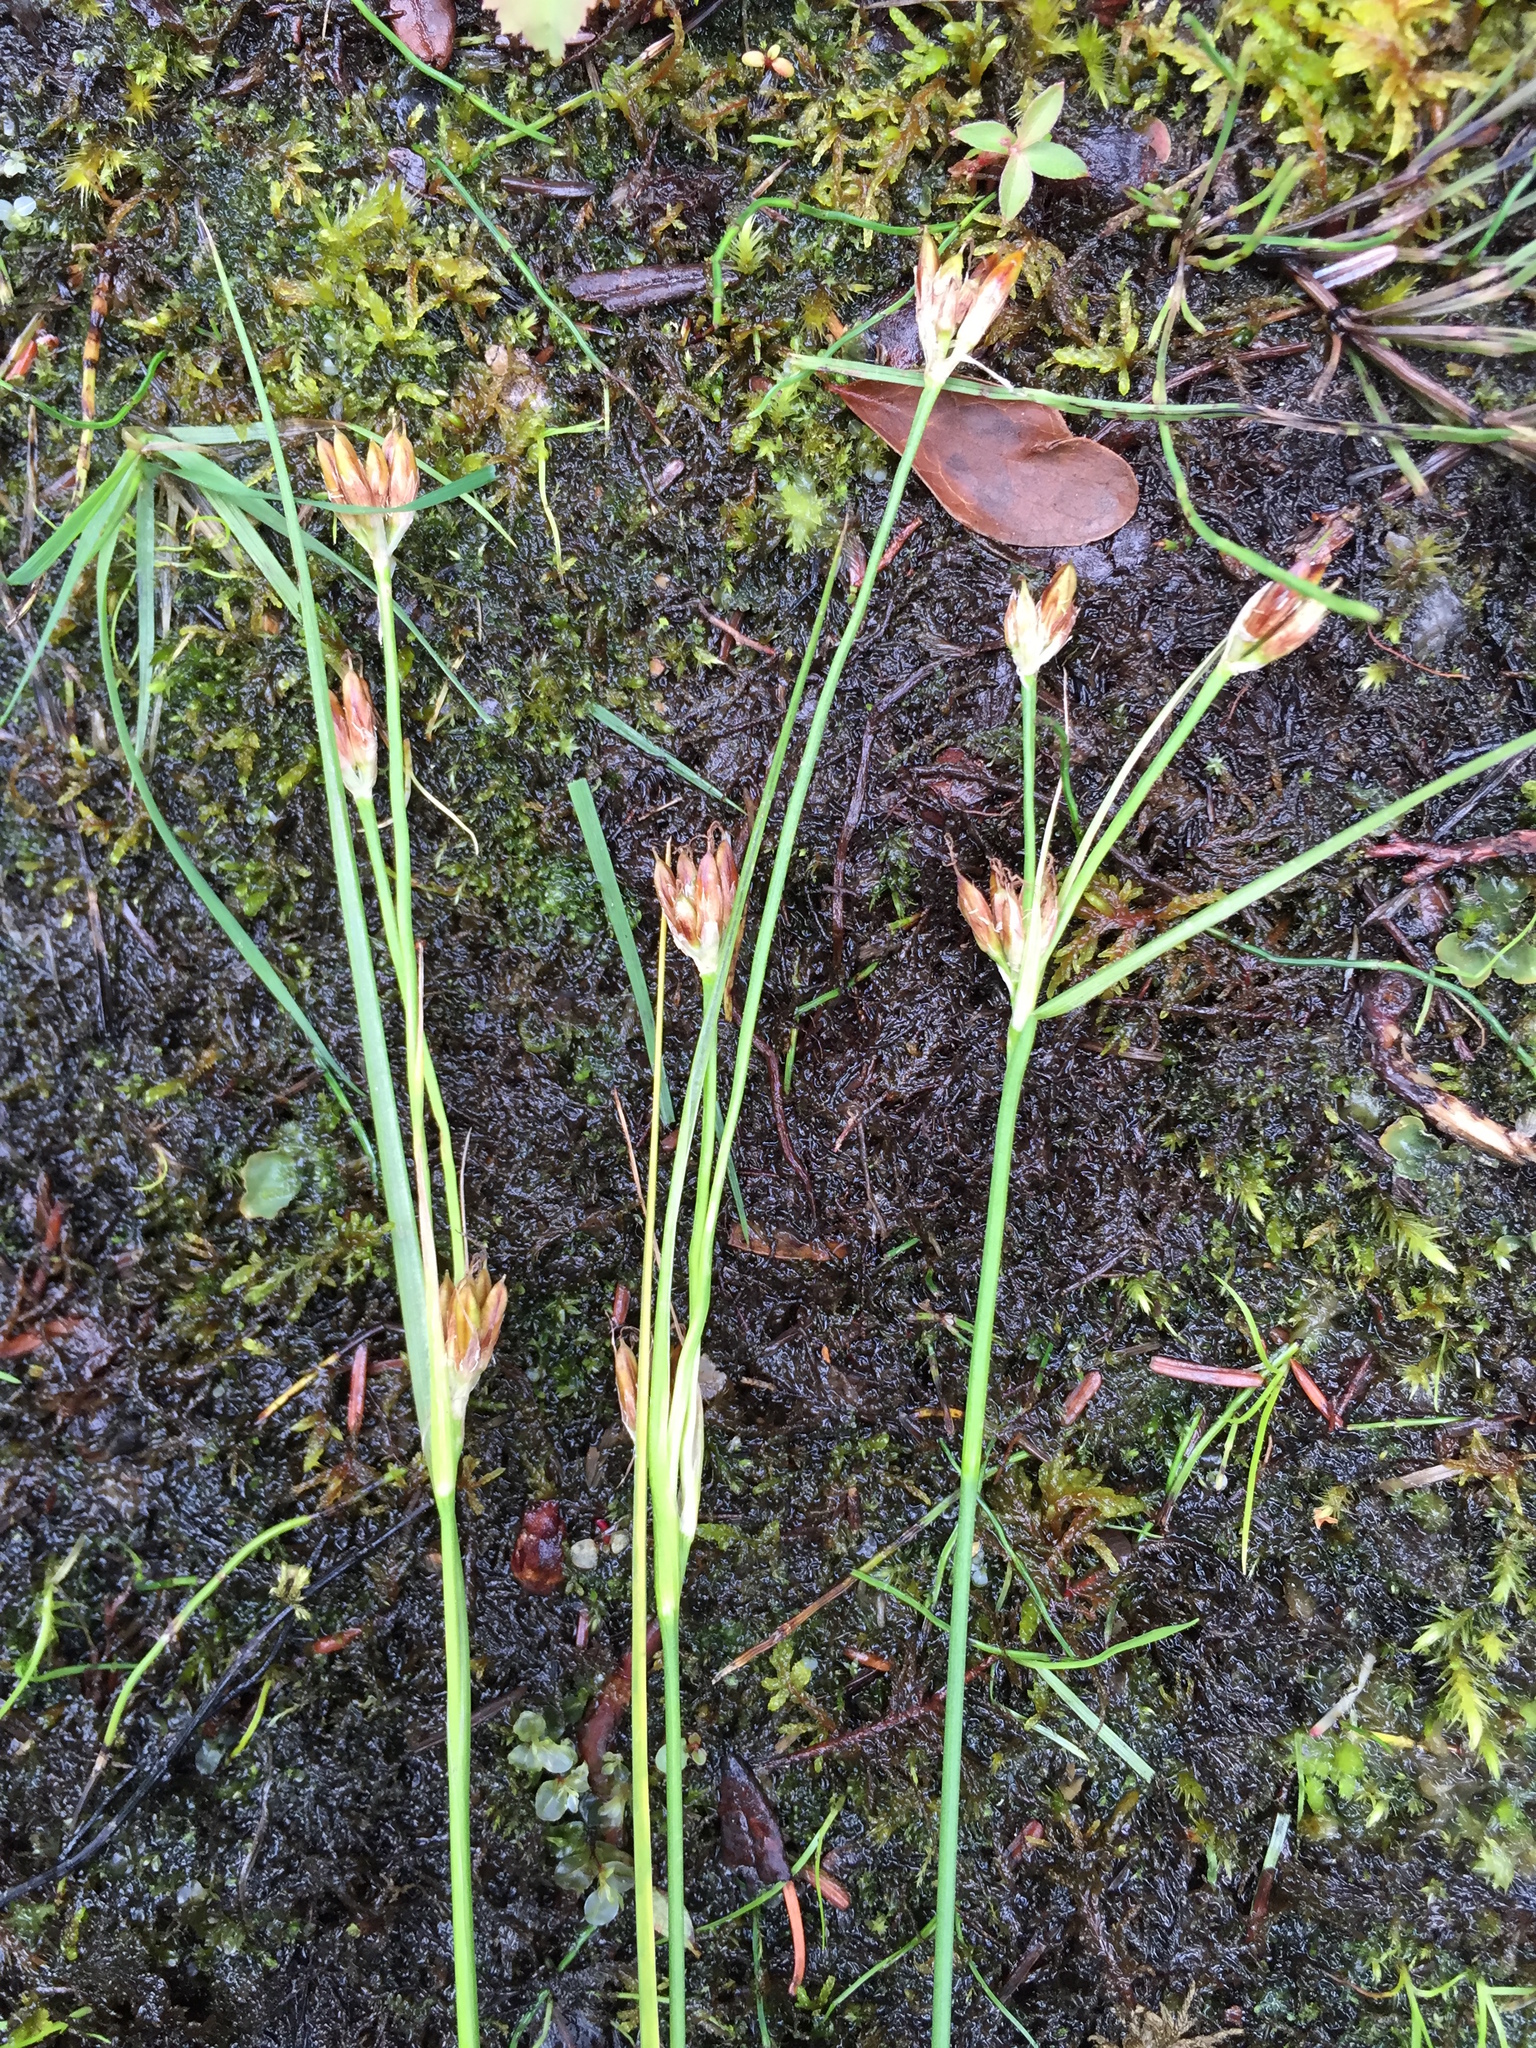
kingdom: Plantae
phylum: Tracheophyta
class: Liliopsida
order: Poales
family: Juncaceae
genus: Juncus
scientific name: Juncus castaneus
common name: Chestnut rush
